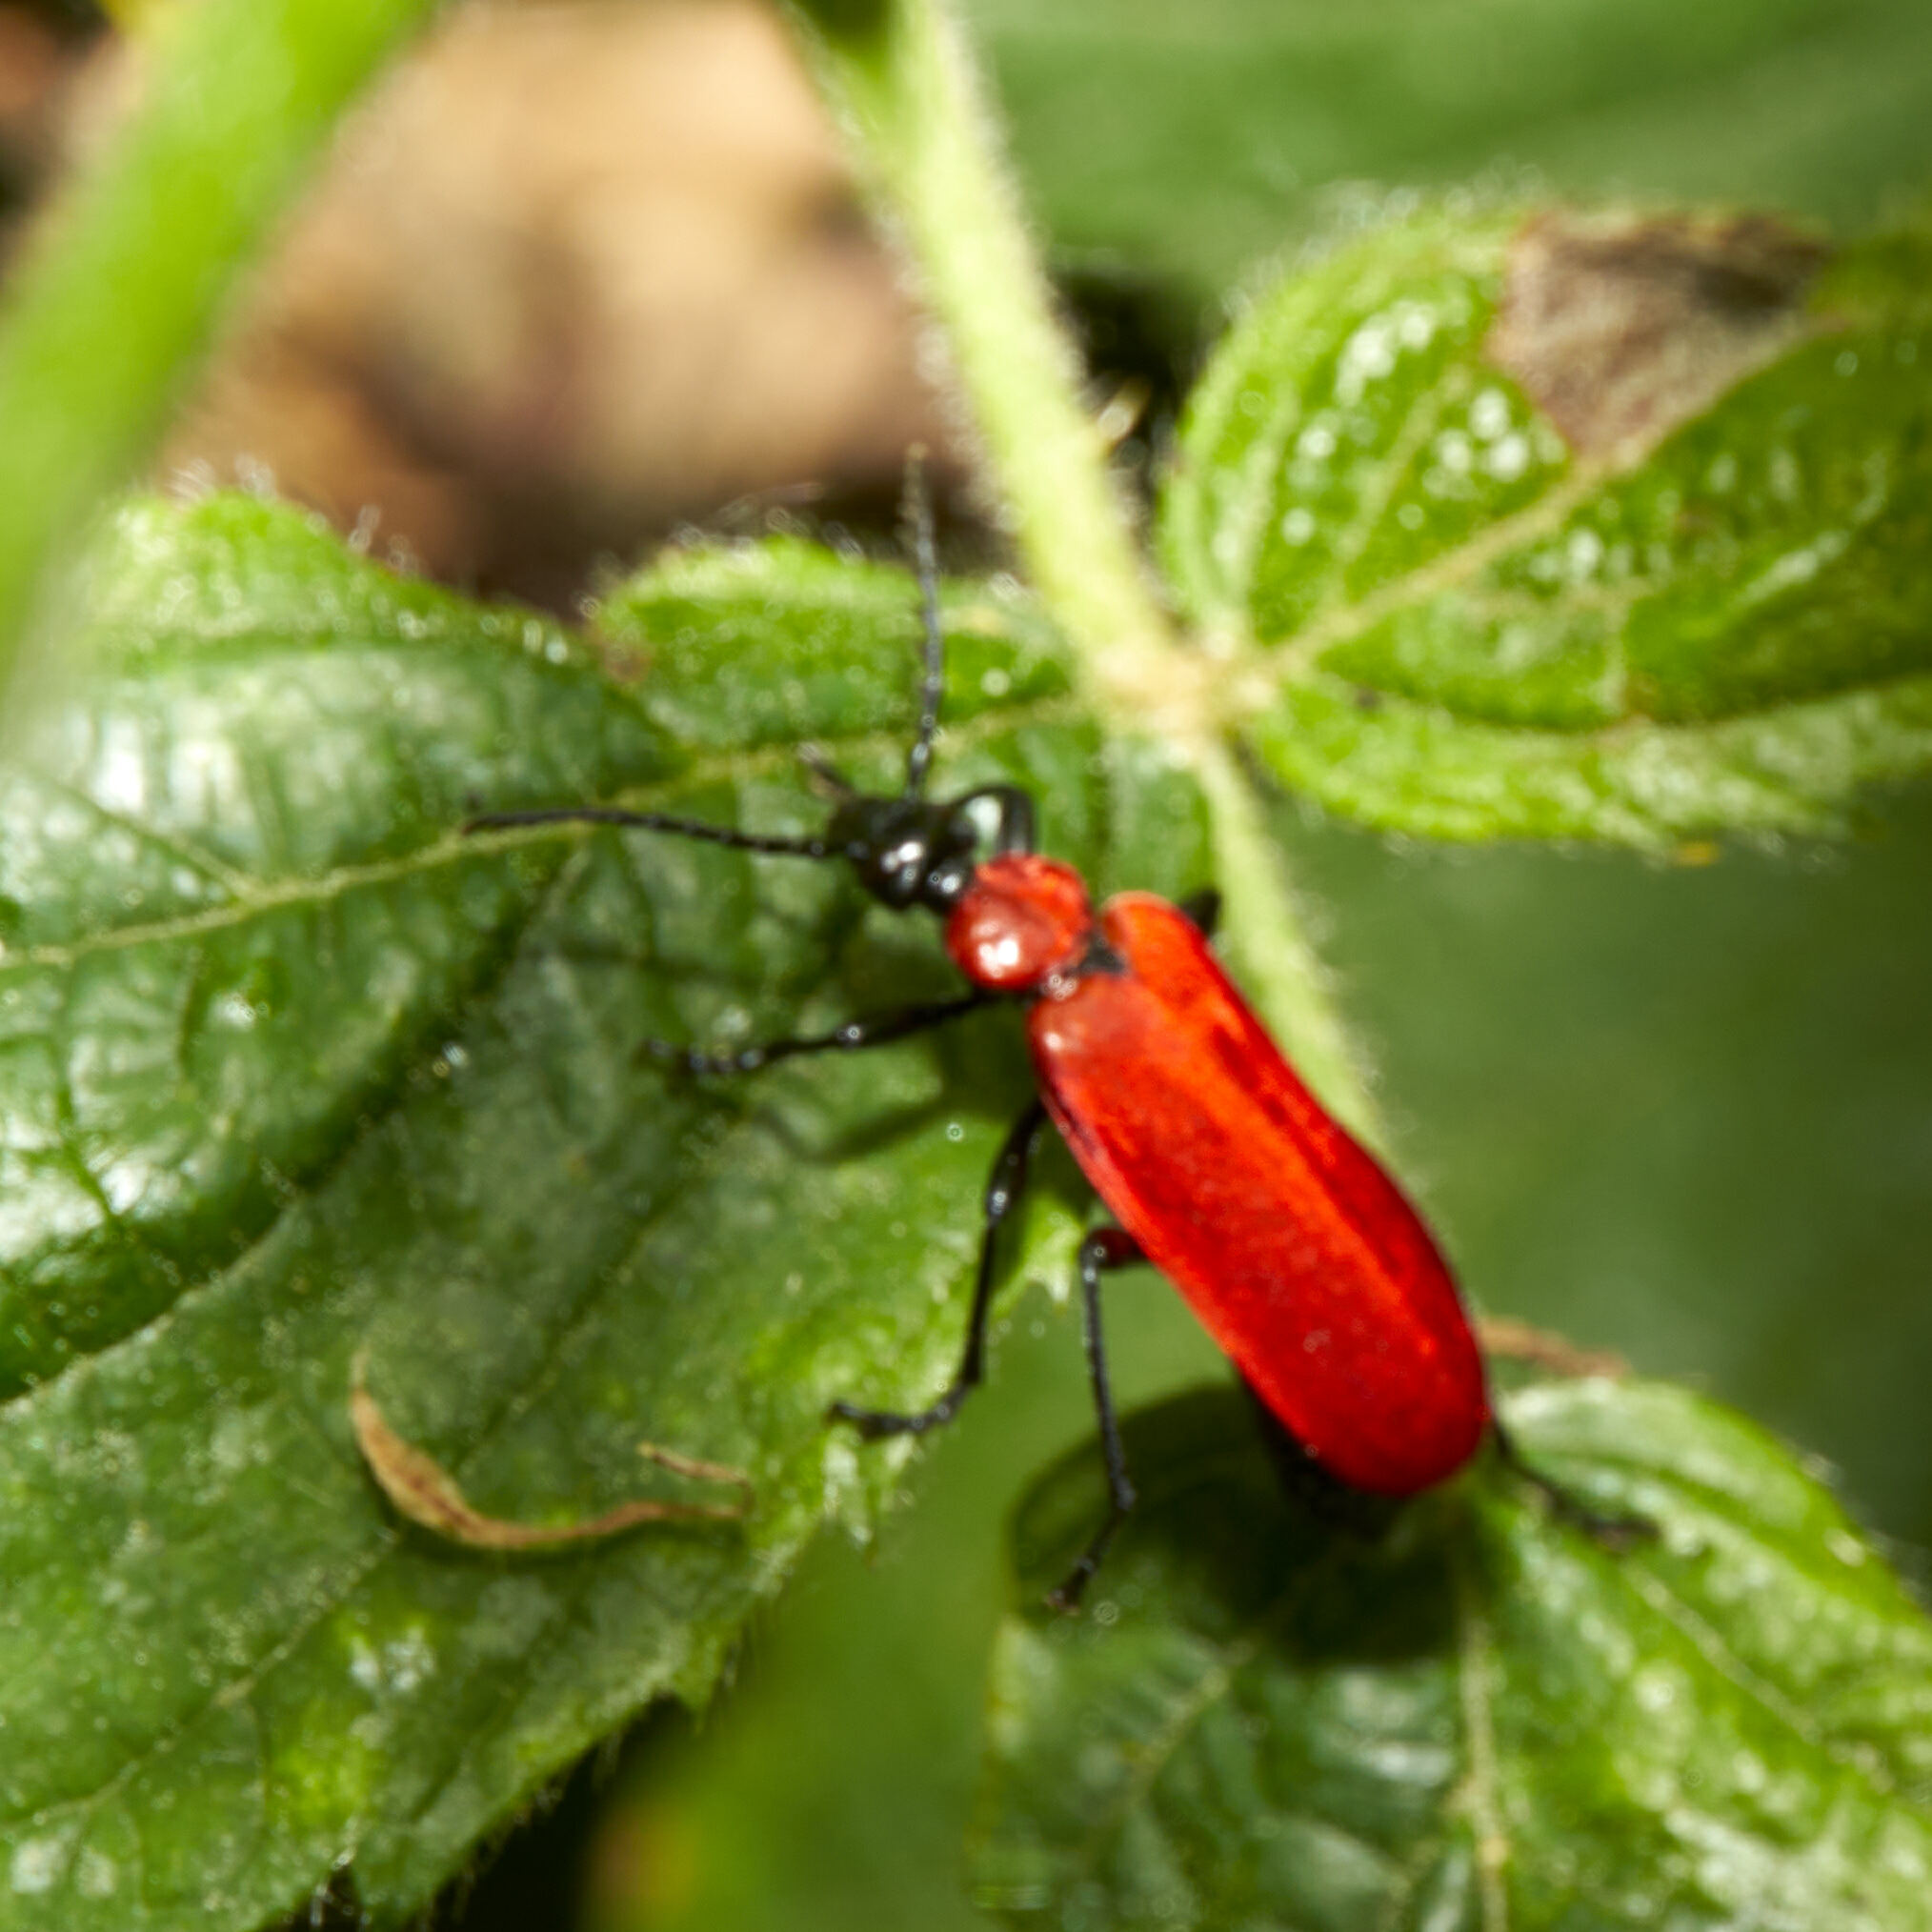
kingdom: Animalia
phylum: Arthropoda
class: Insecta
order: Coleoptera
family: Pyrochroidae
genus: Pyrochroa
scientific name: Pyrochroa coccinea
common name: Black-headed cardinal beetle
